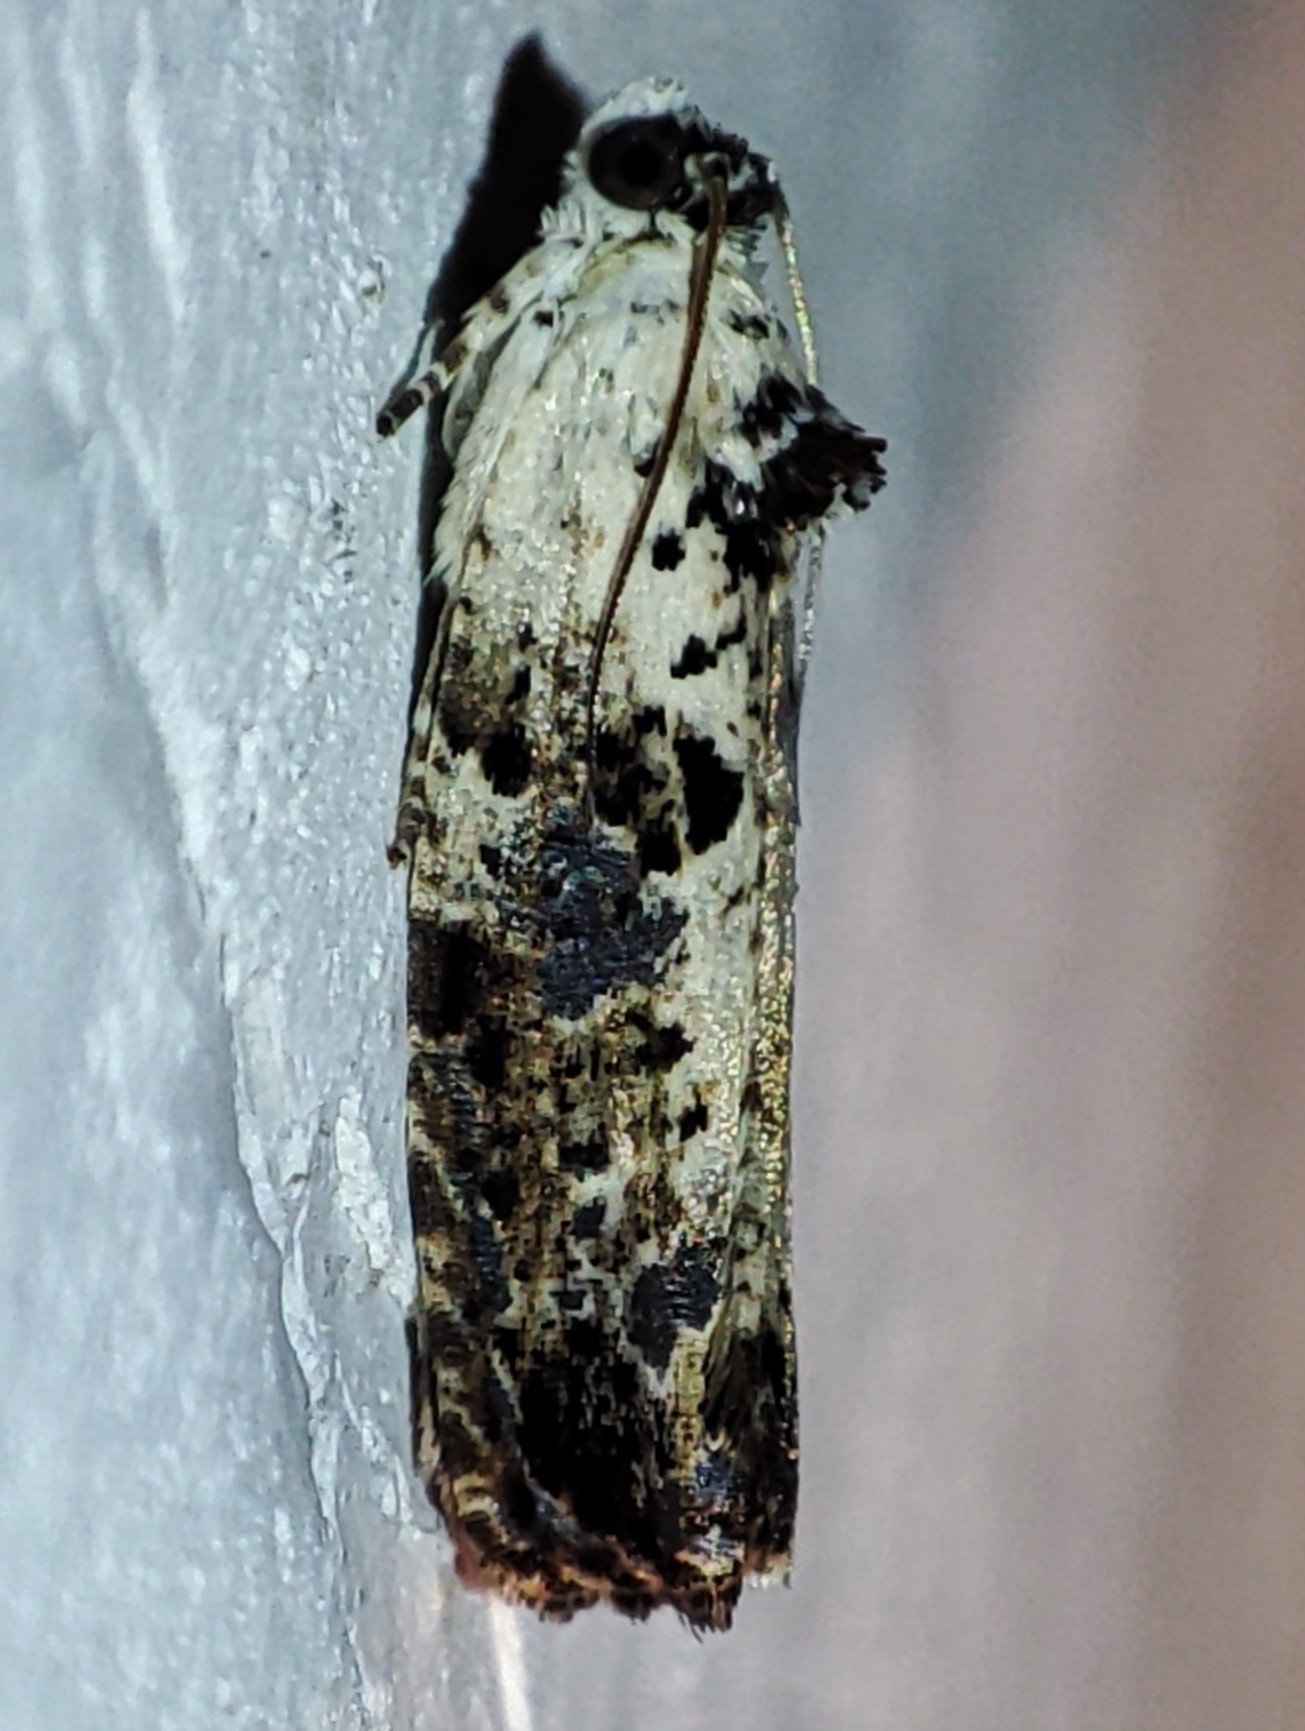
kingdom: Animalia
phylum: Arthropoda
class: Insecta
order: Lepidoptera
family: Tortricidae
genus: Hedya
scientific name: Hedya salicella
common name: Large tortricid moth
